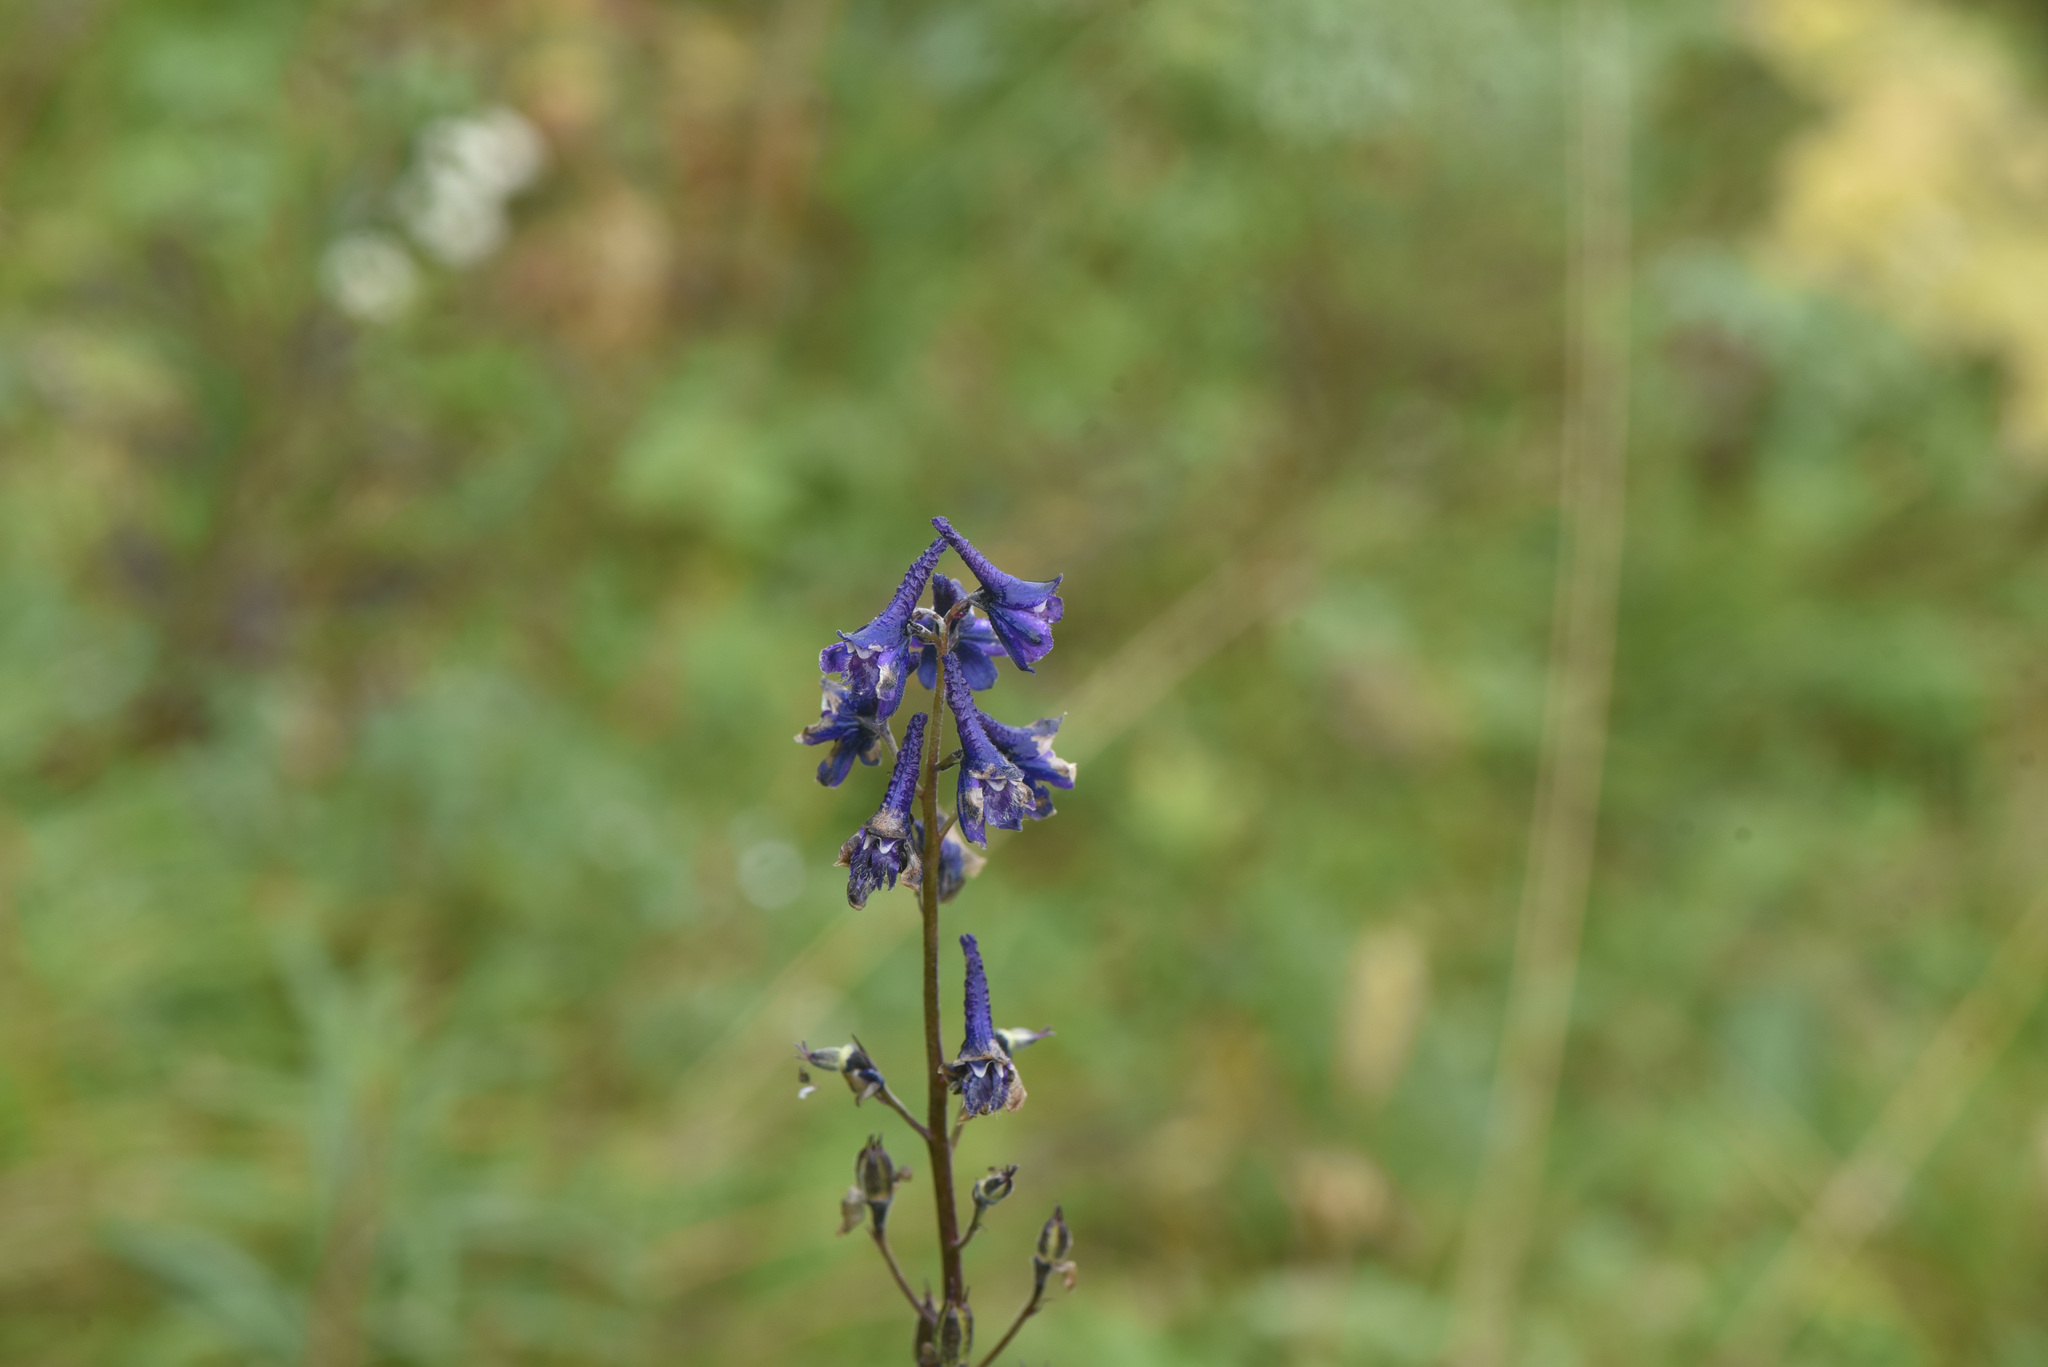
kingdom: Plantae
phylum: Tracheophyta
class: Magnoliopsida
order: Ranunculales
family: Ranunculaceae
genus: Delphinium
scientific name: Delphinium glaucum
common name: Brown's larkspur
